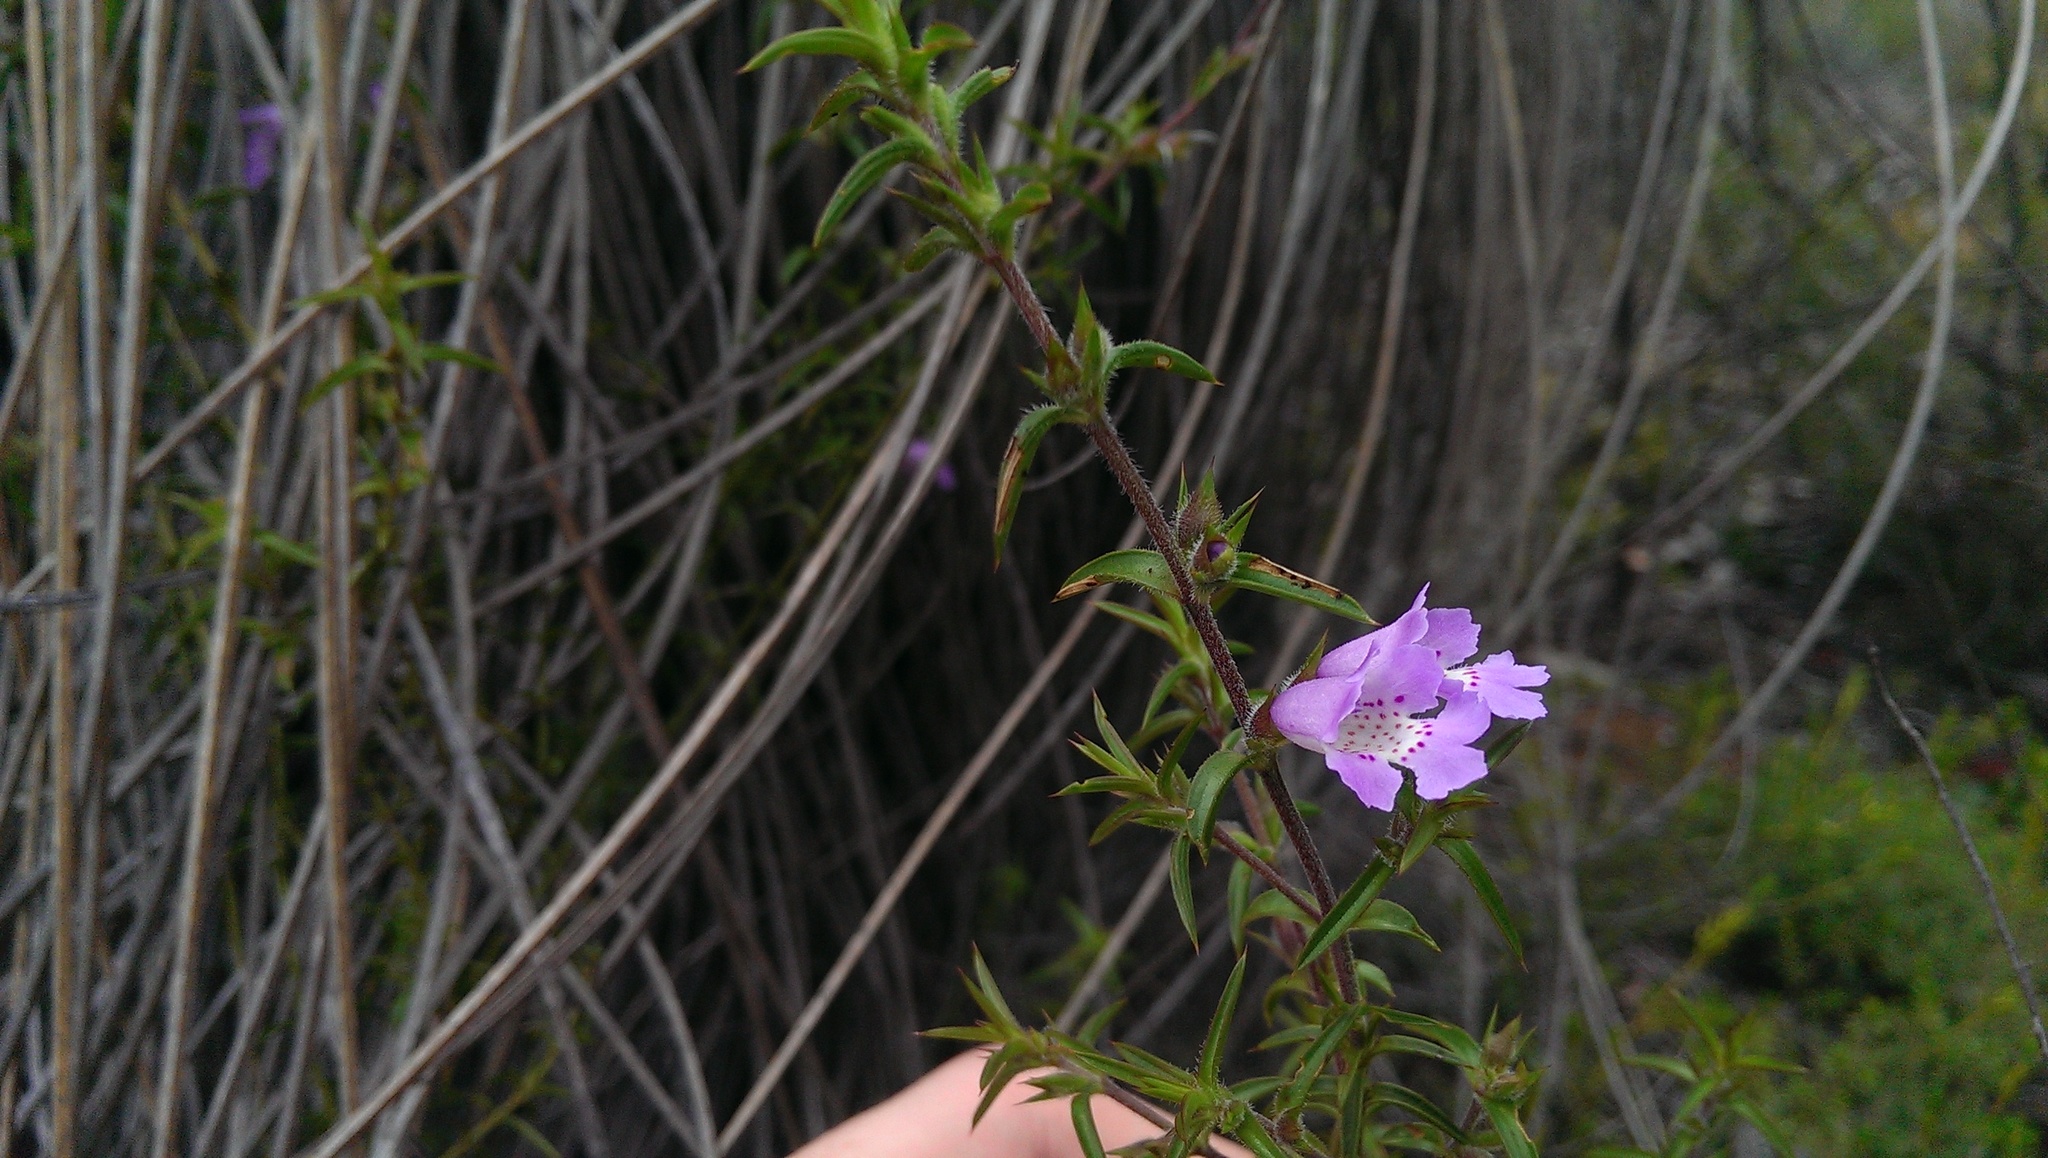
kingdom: Plantae
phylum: Tracheophyta
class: Magnoliopsida
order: Lamiales
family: Lamiaceae
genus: Hemiandra
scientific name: Hemiandra pungens
